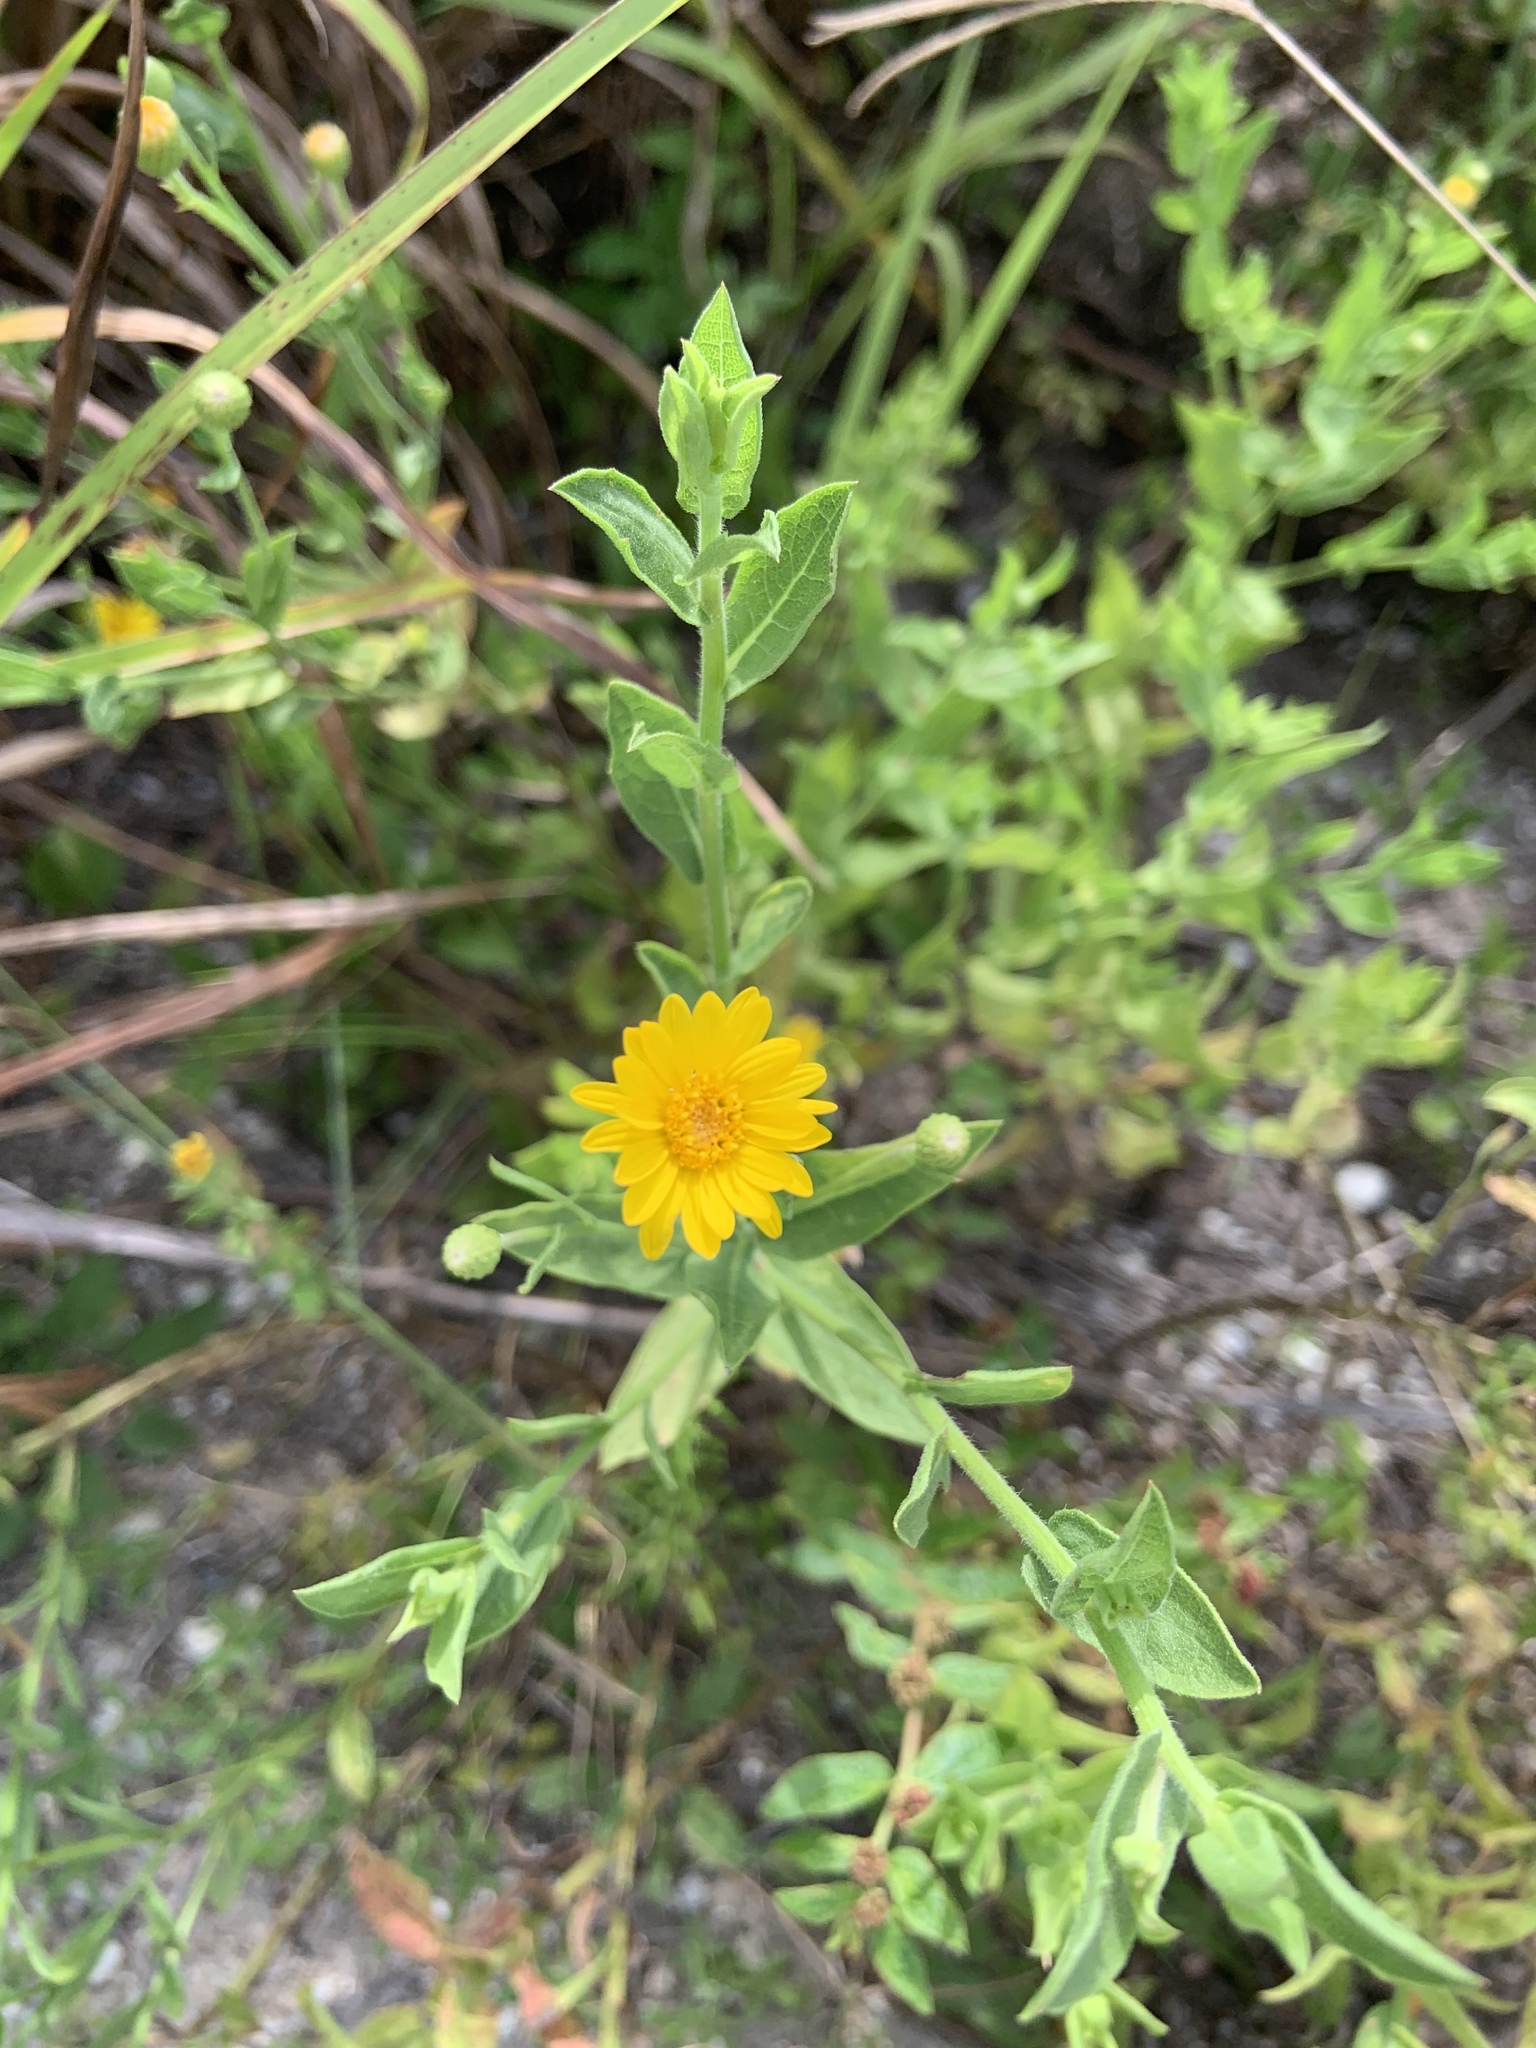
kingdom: Plantae
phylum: Tracheophyta
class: Magnoliopsida
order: Asterales
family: Asteraceae
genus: Heterotheca
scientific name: Heterotheca subaxillaris
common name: Camphorweed
